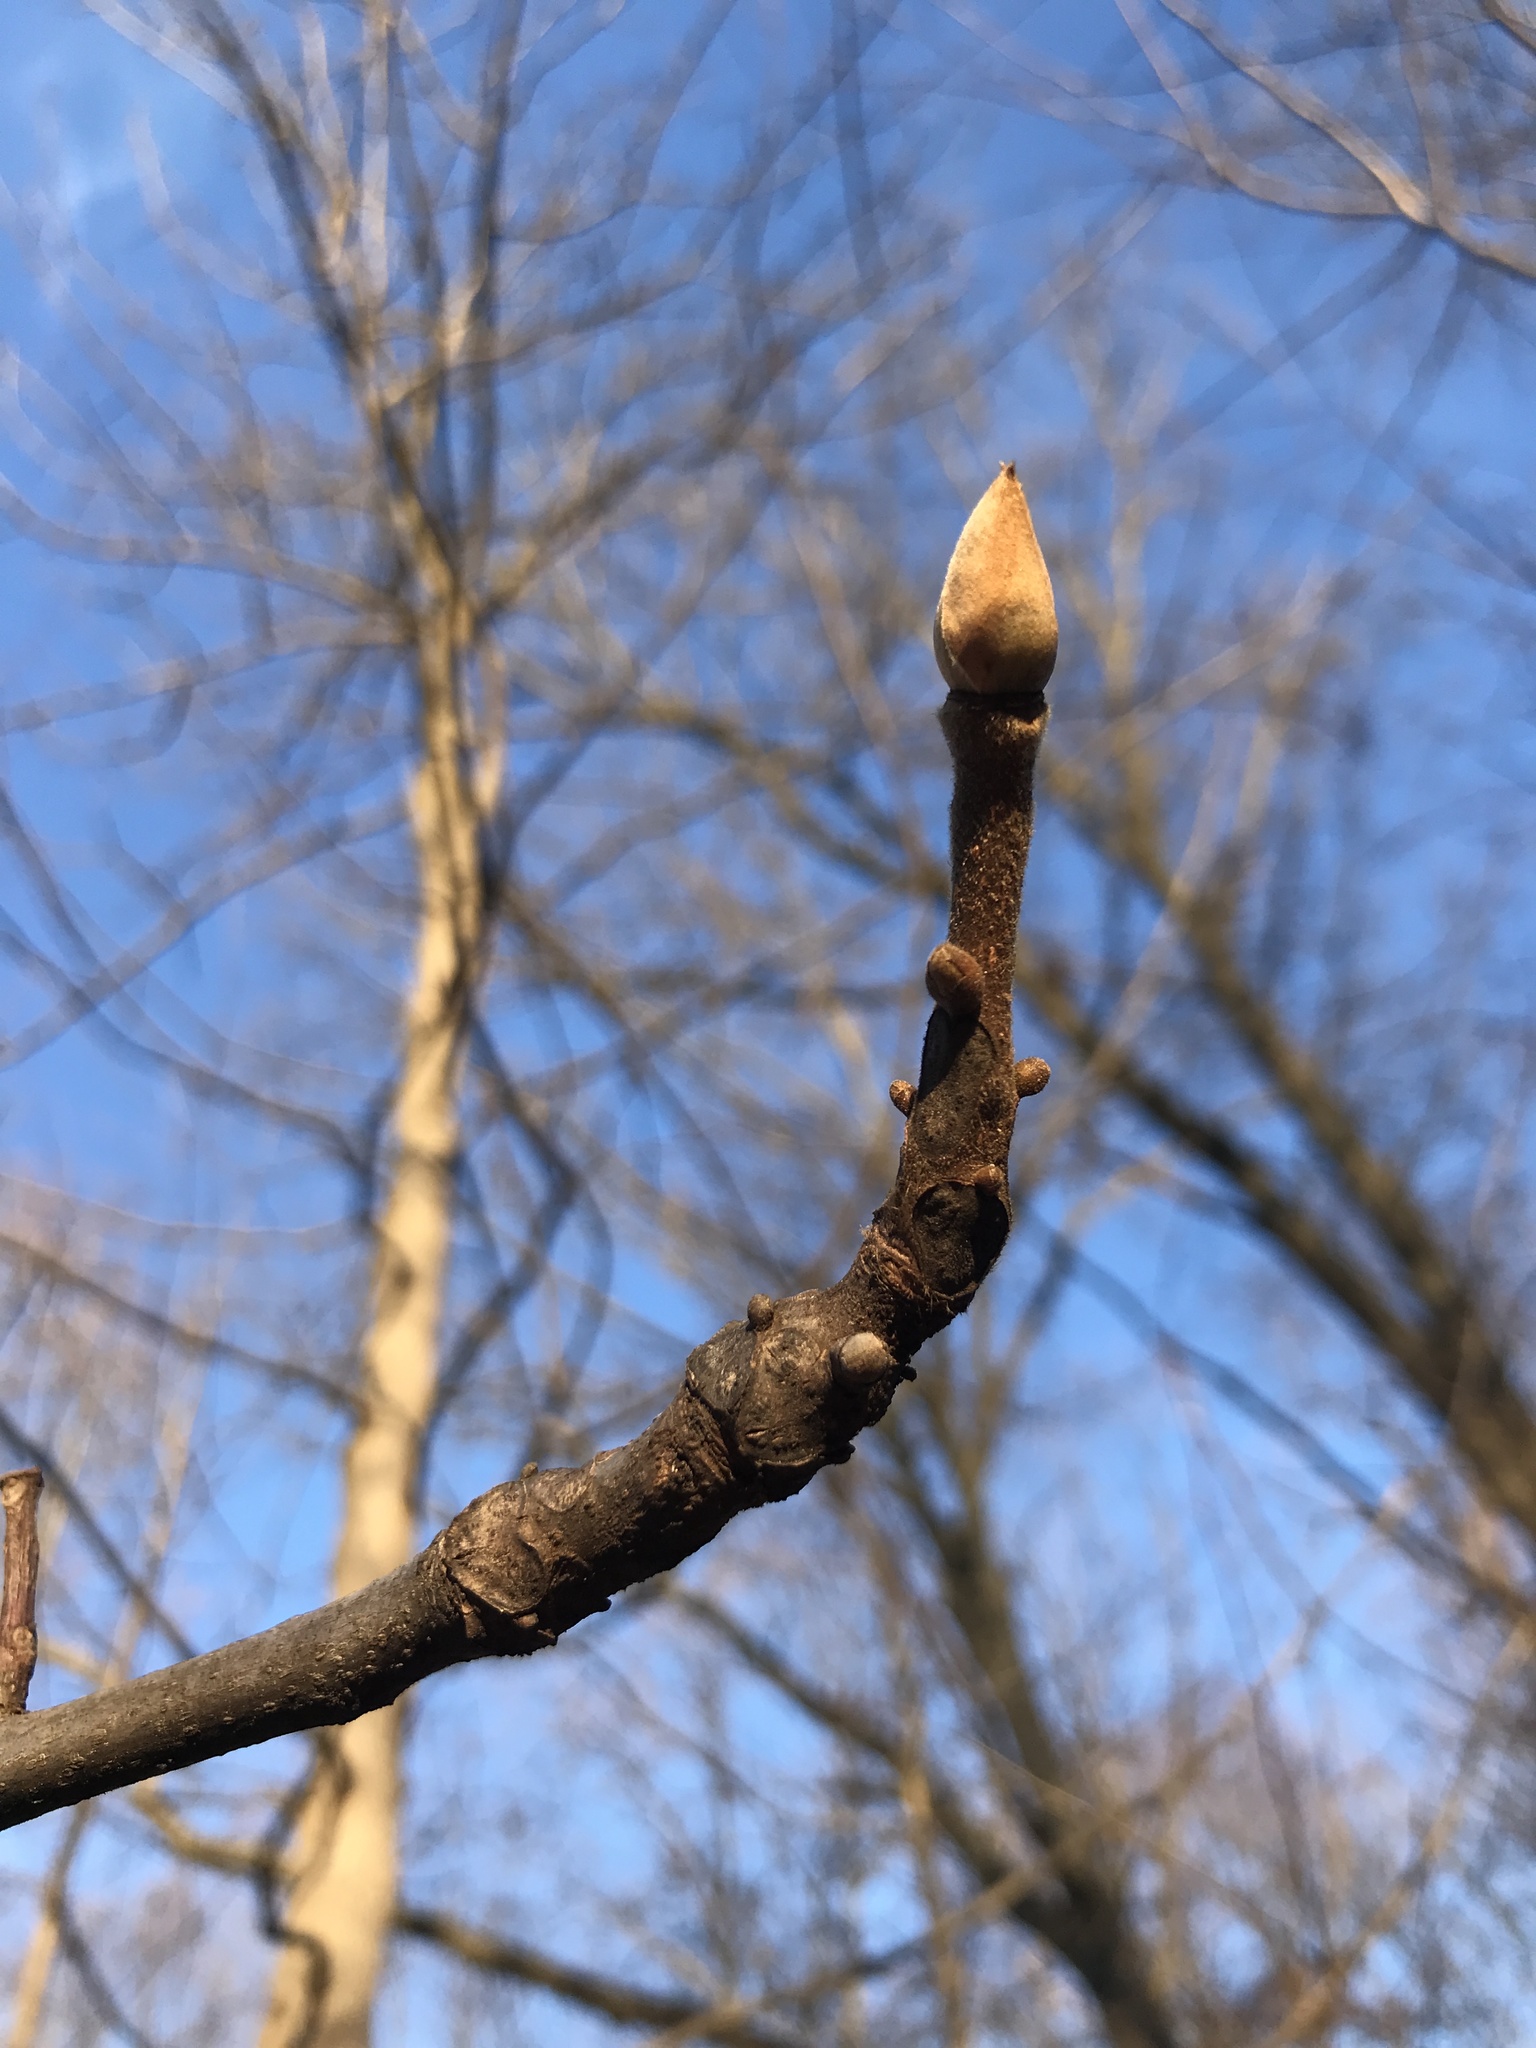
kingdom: Plantae
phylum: Tracheophyta
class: Magnoliopsida
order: Fagales
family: Juglandaceae
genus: Carya
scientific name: Carya alba
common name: Mockernut hickory
